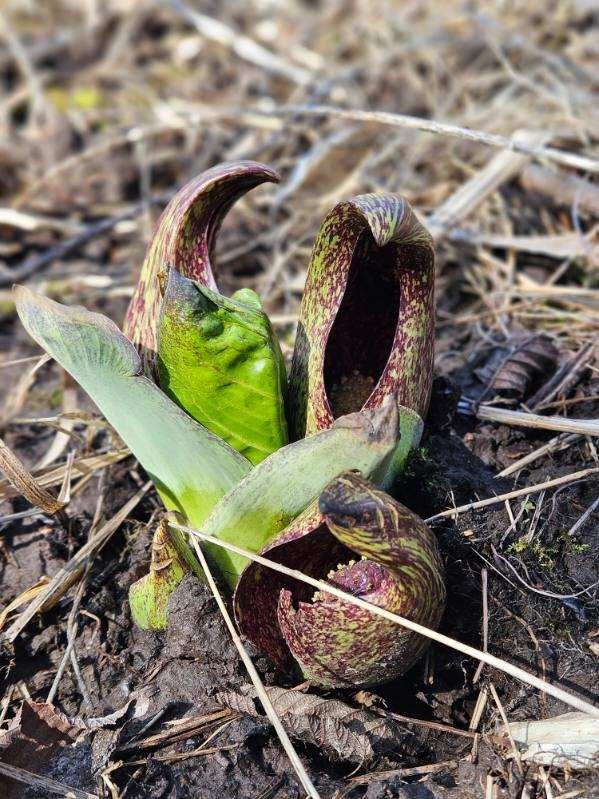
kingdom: Plantae
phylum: Tracheophyta
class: Liliopsida
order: Alismatales
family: Araceae
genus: Symplocarpus
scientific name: Symplocarpus foetidus
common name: Eastern skunk cabbage
